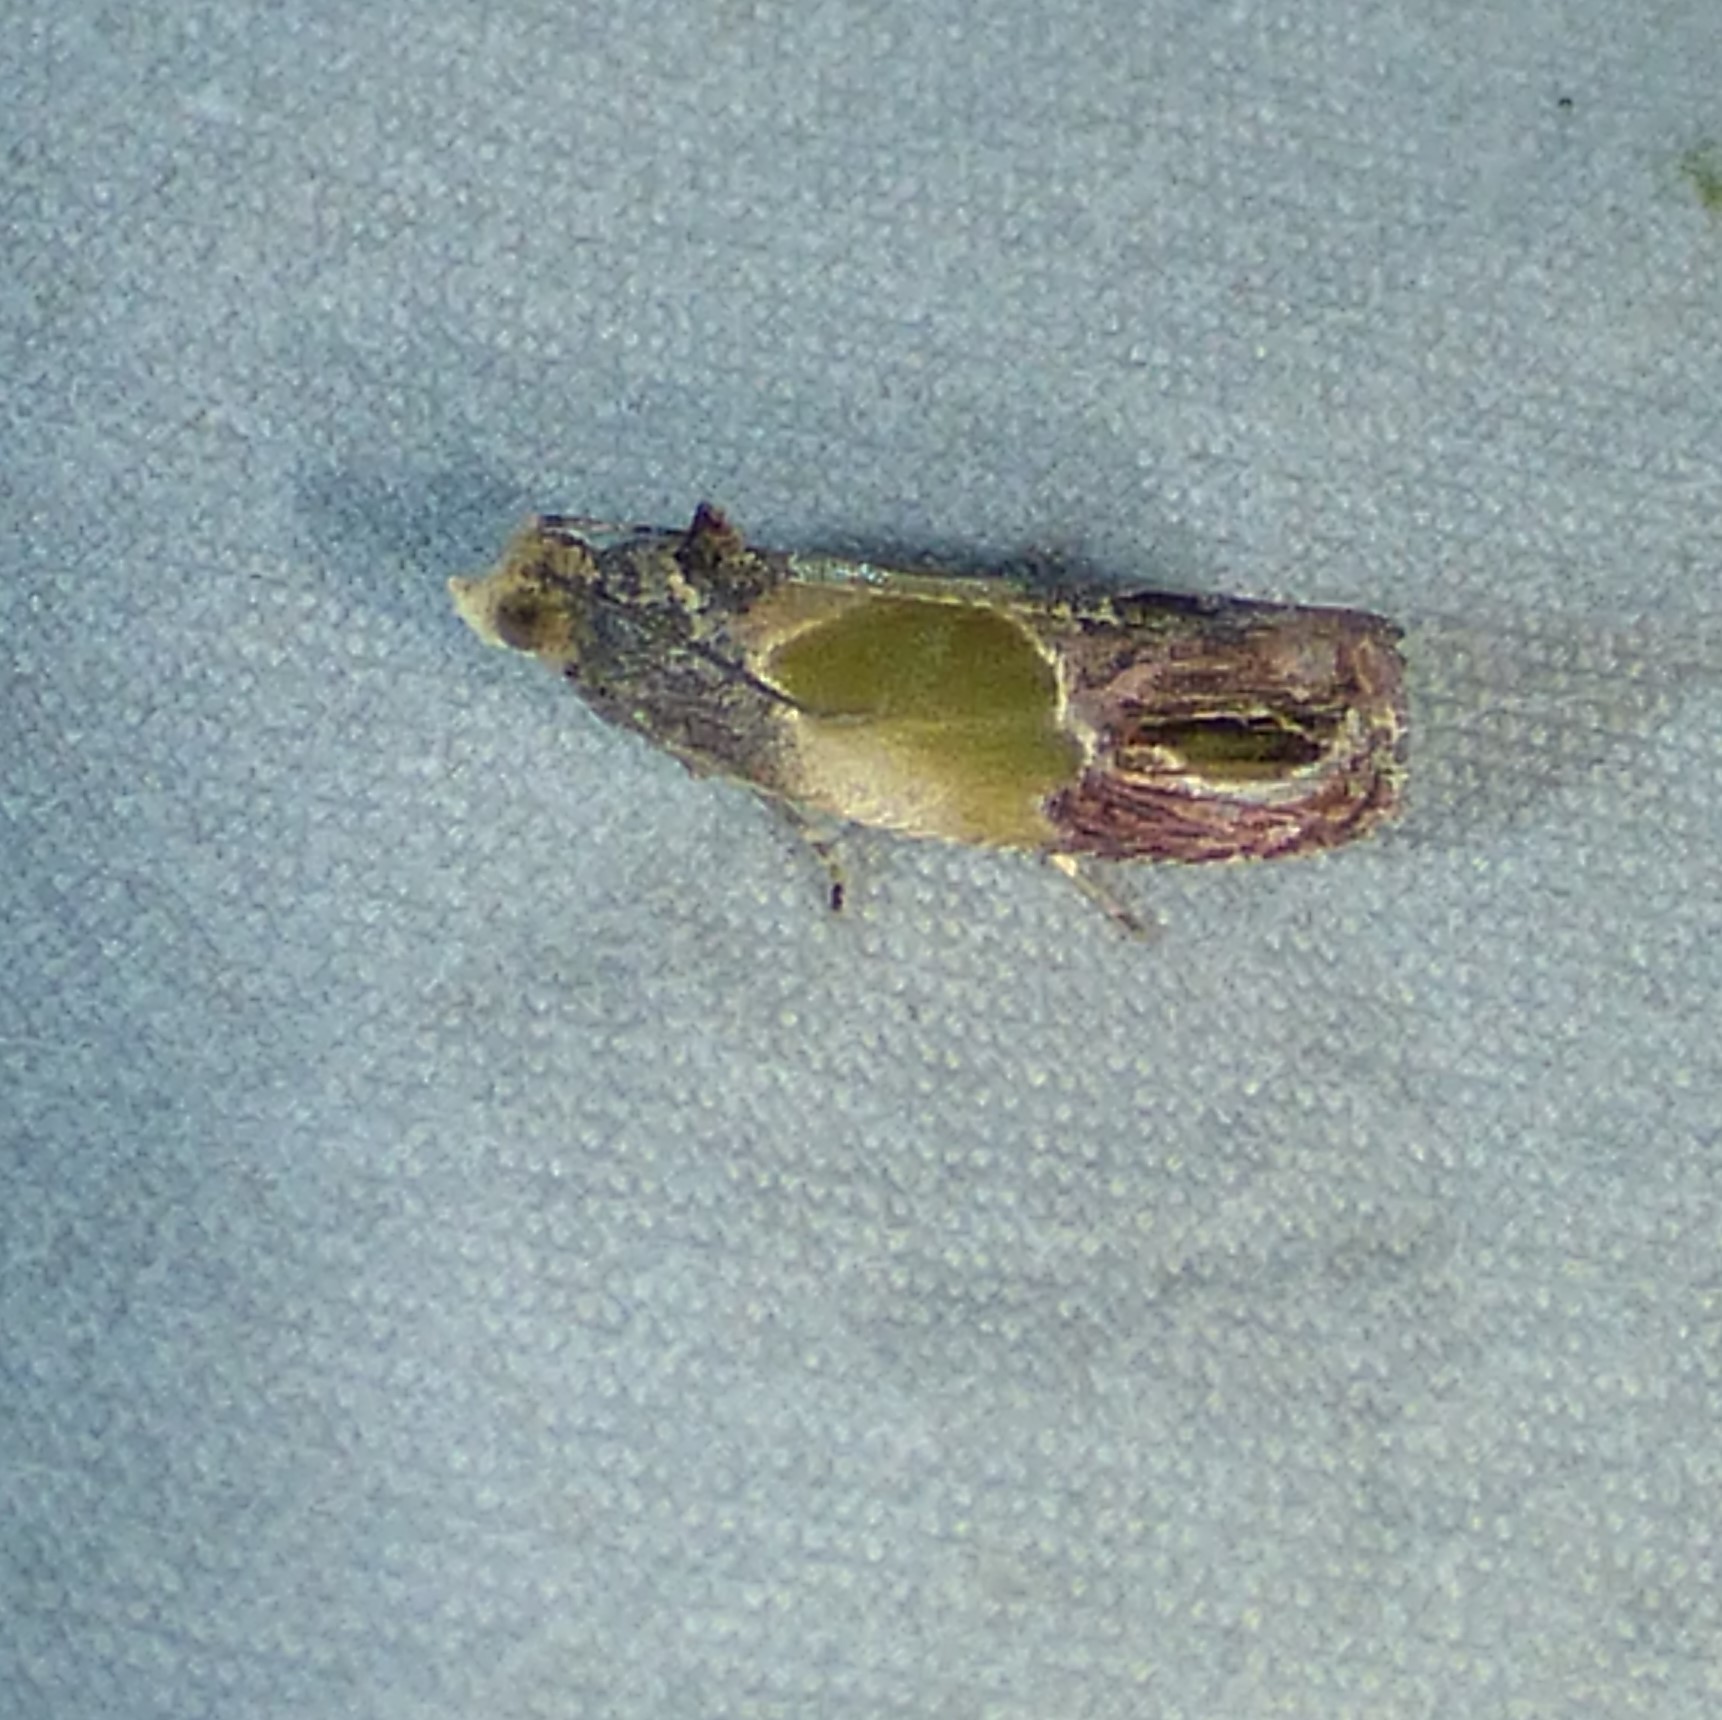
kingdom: Animalia
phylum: Arthropoda
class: Insecta
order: Lepidoptera
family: Tortricidae
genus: Eumarozia
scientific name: Eumarozia malachitana
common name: Sculptured moth
